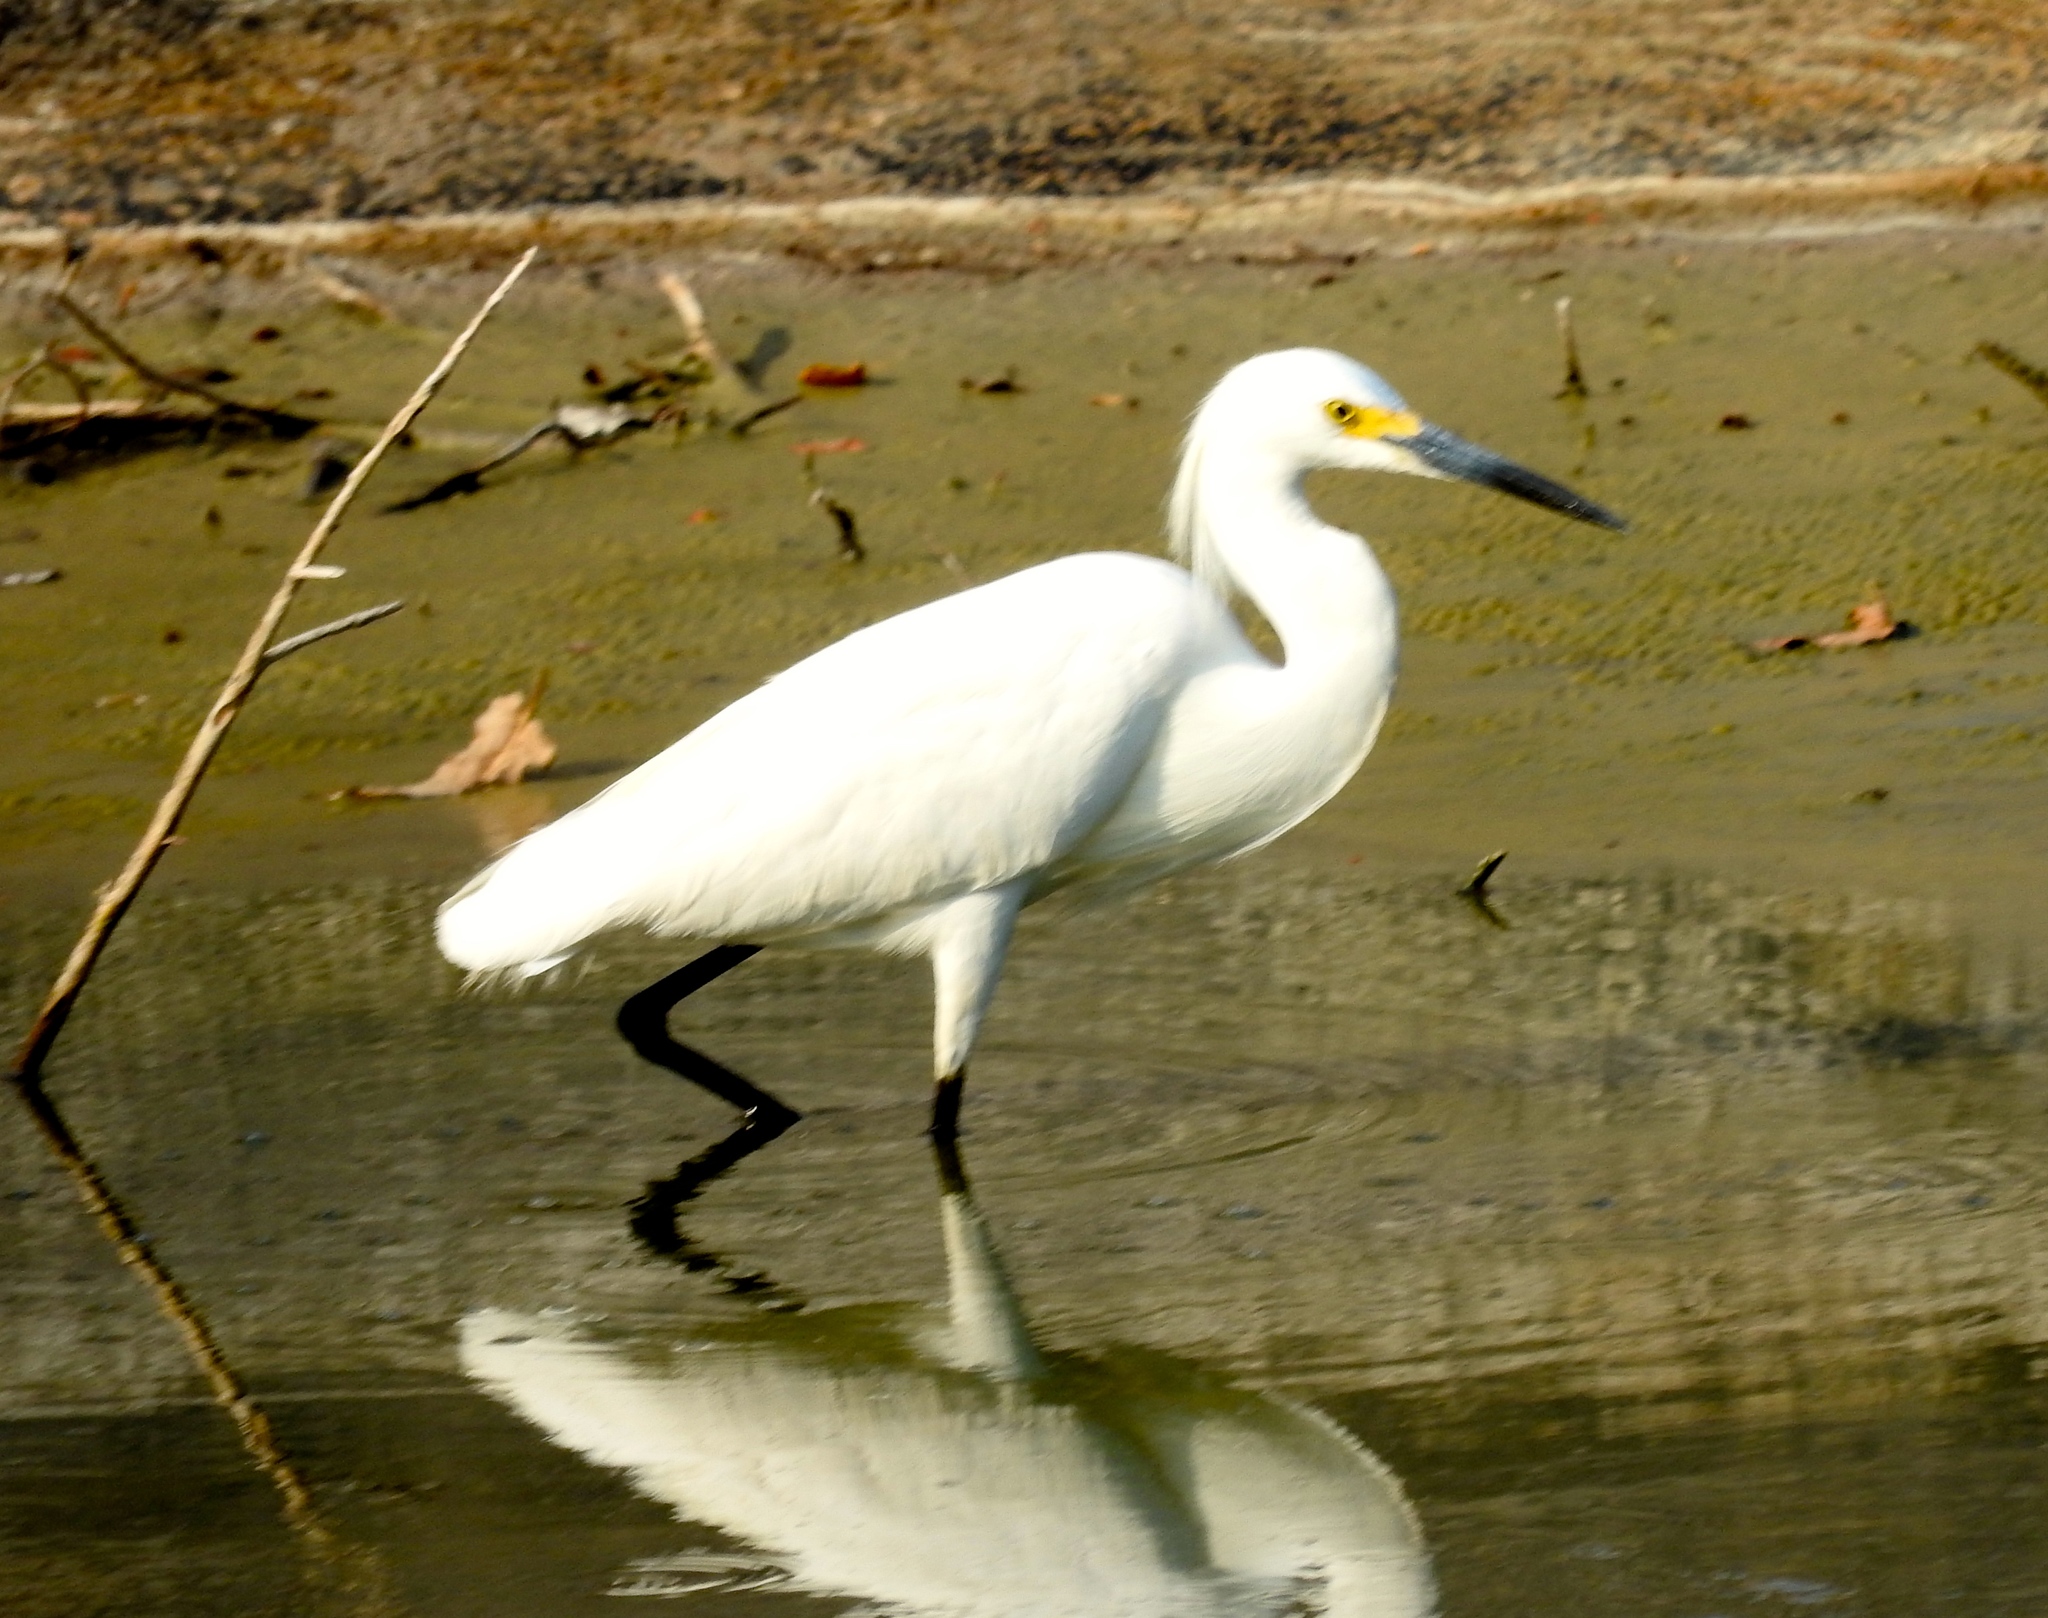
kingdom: Animalia
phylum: Chordata
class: Aves
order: Pelecaniformes
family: Ardeidae
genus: Egretta
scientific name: Egretta thula
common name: Snowy egret
